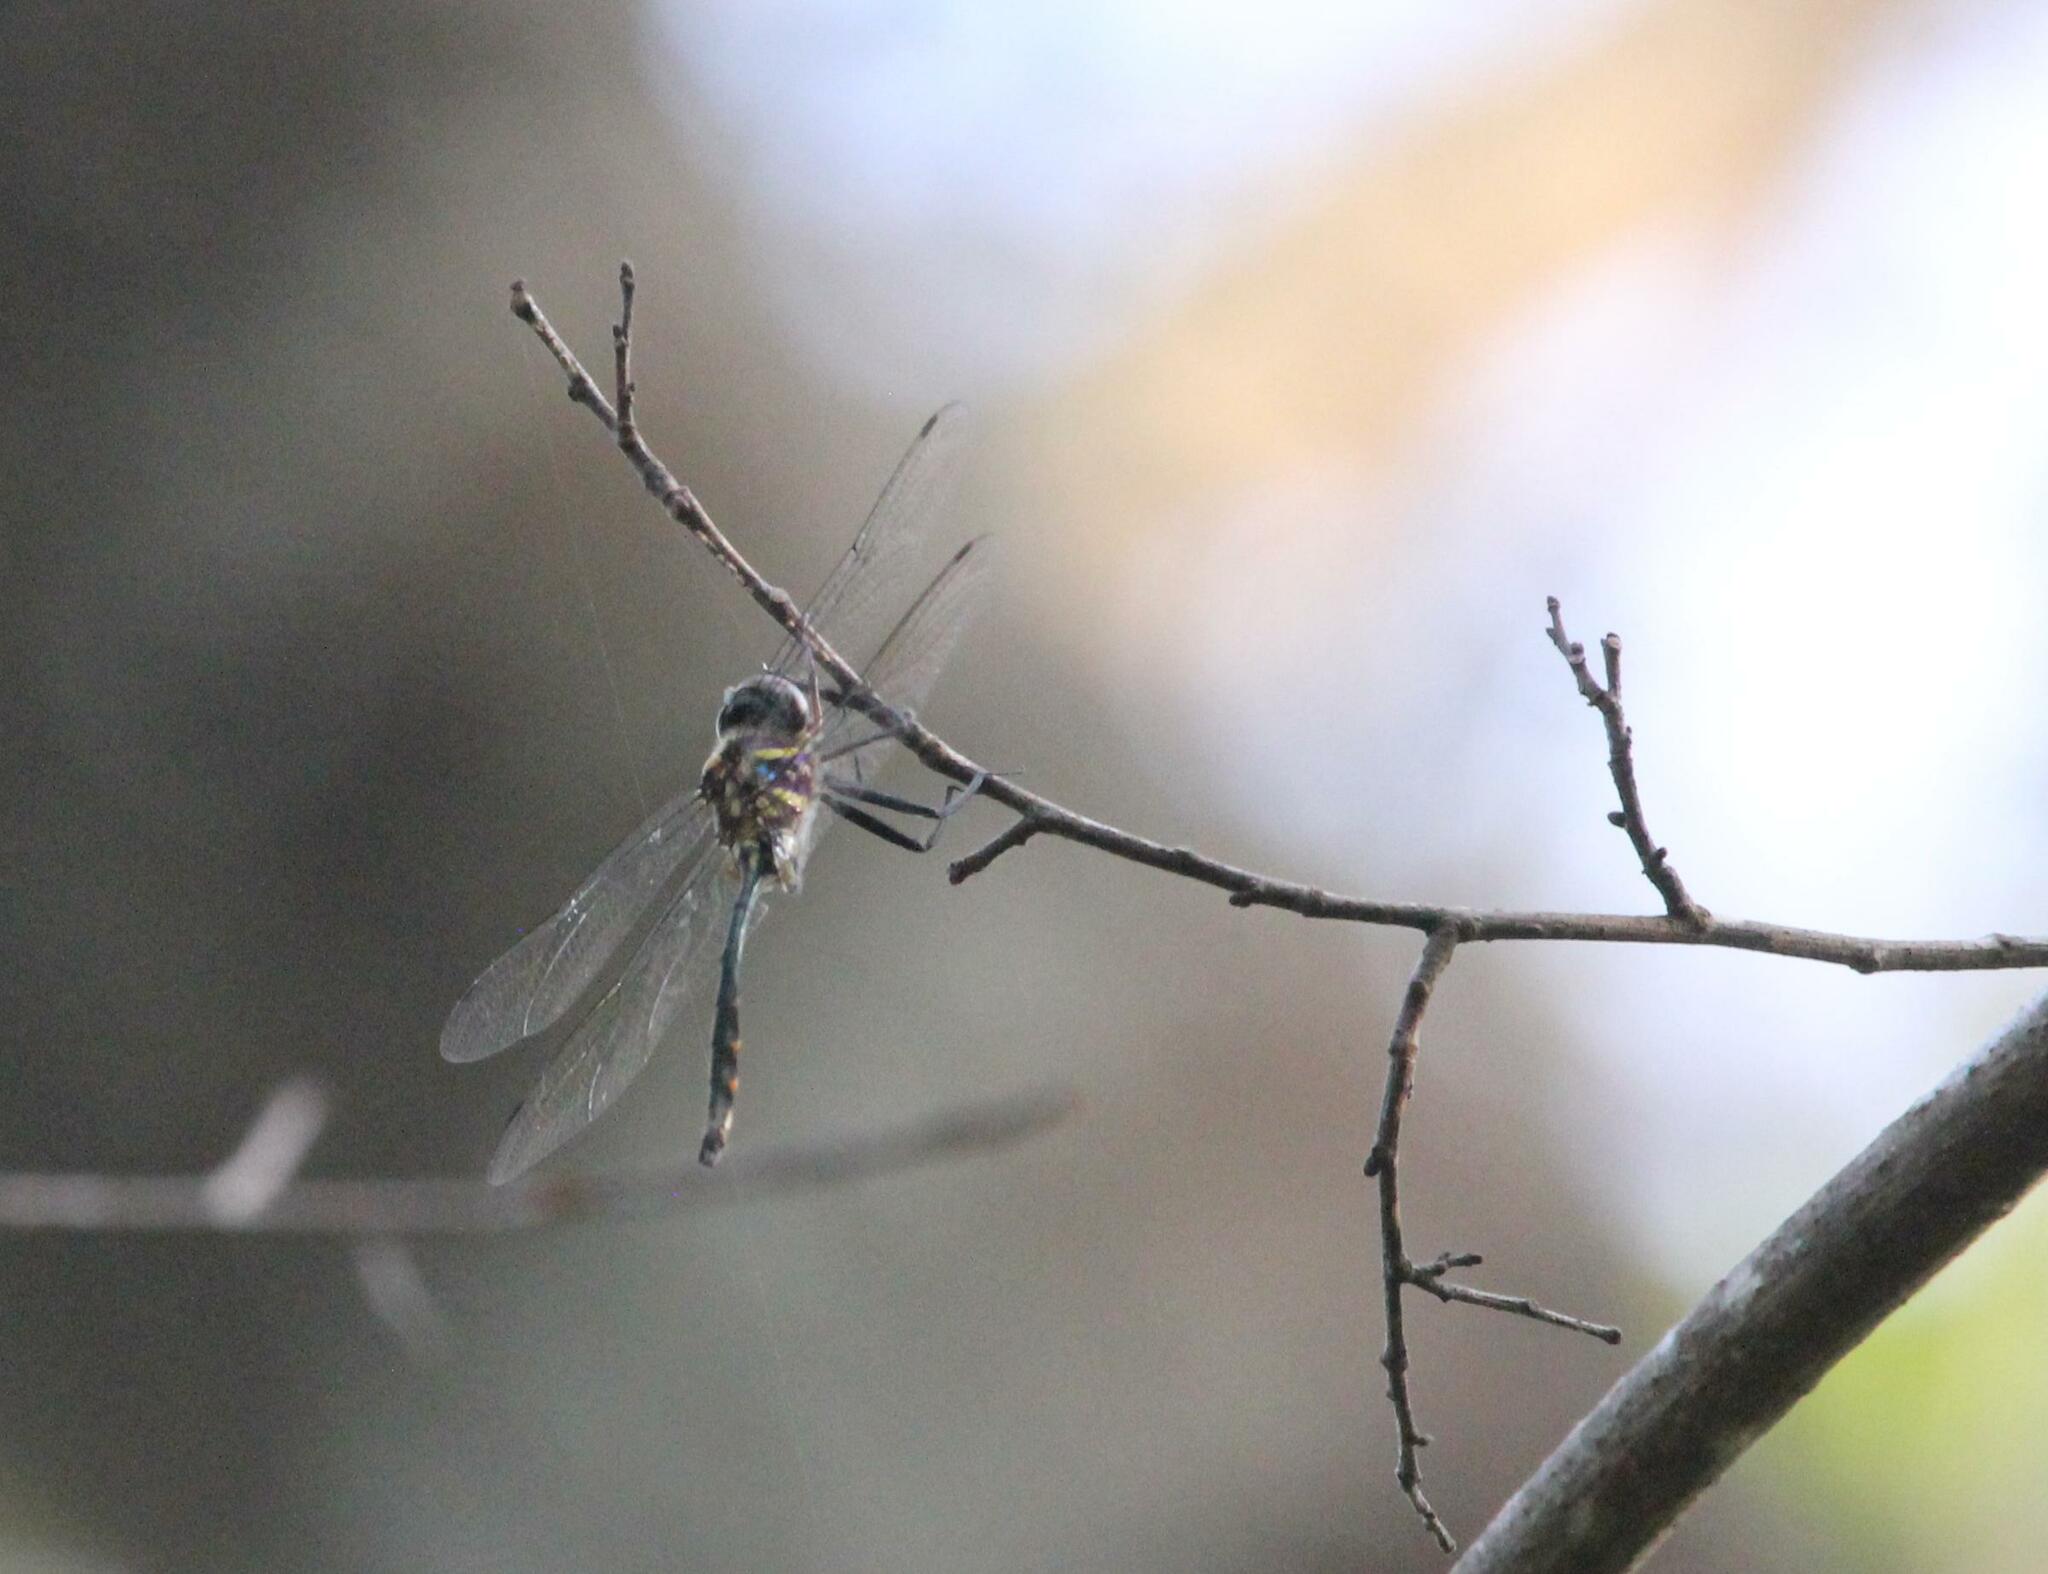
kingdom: Animalia
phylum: Arthropoda
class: Insecta
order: Odonata
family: Corduliidae
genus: Somatochlora
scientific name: Somatochlora provocans
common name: Treetop emerald
